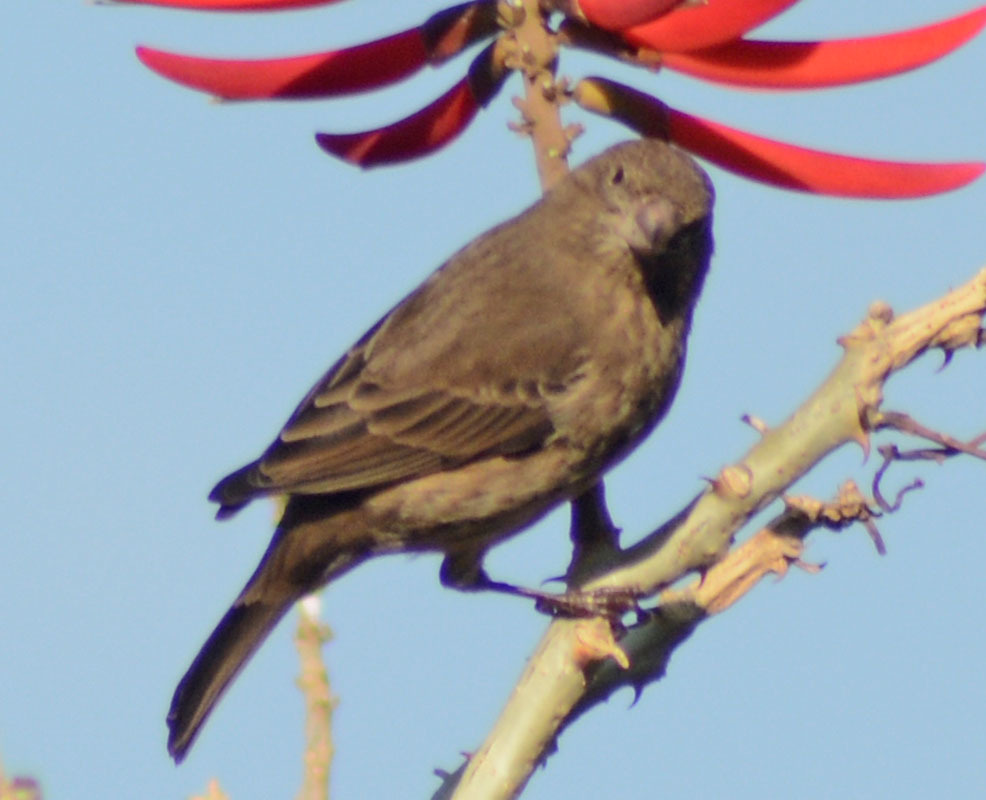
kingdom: Animalia
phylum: Chordata
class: Aves
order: Passeriformes
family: Fringillidae
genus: Haemorhous
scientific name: Haemorhous mexicanus
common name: House finch
